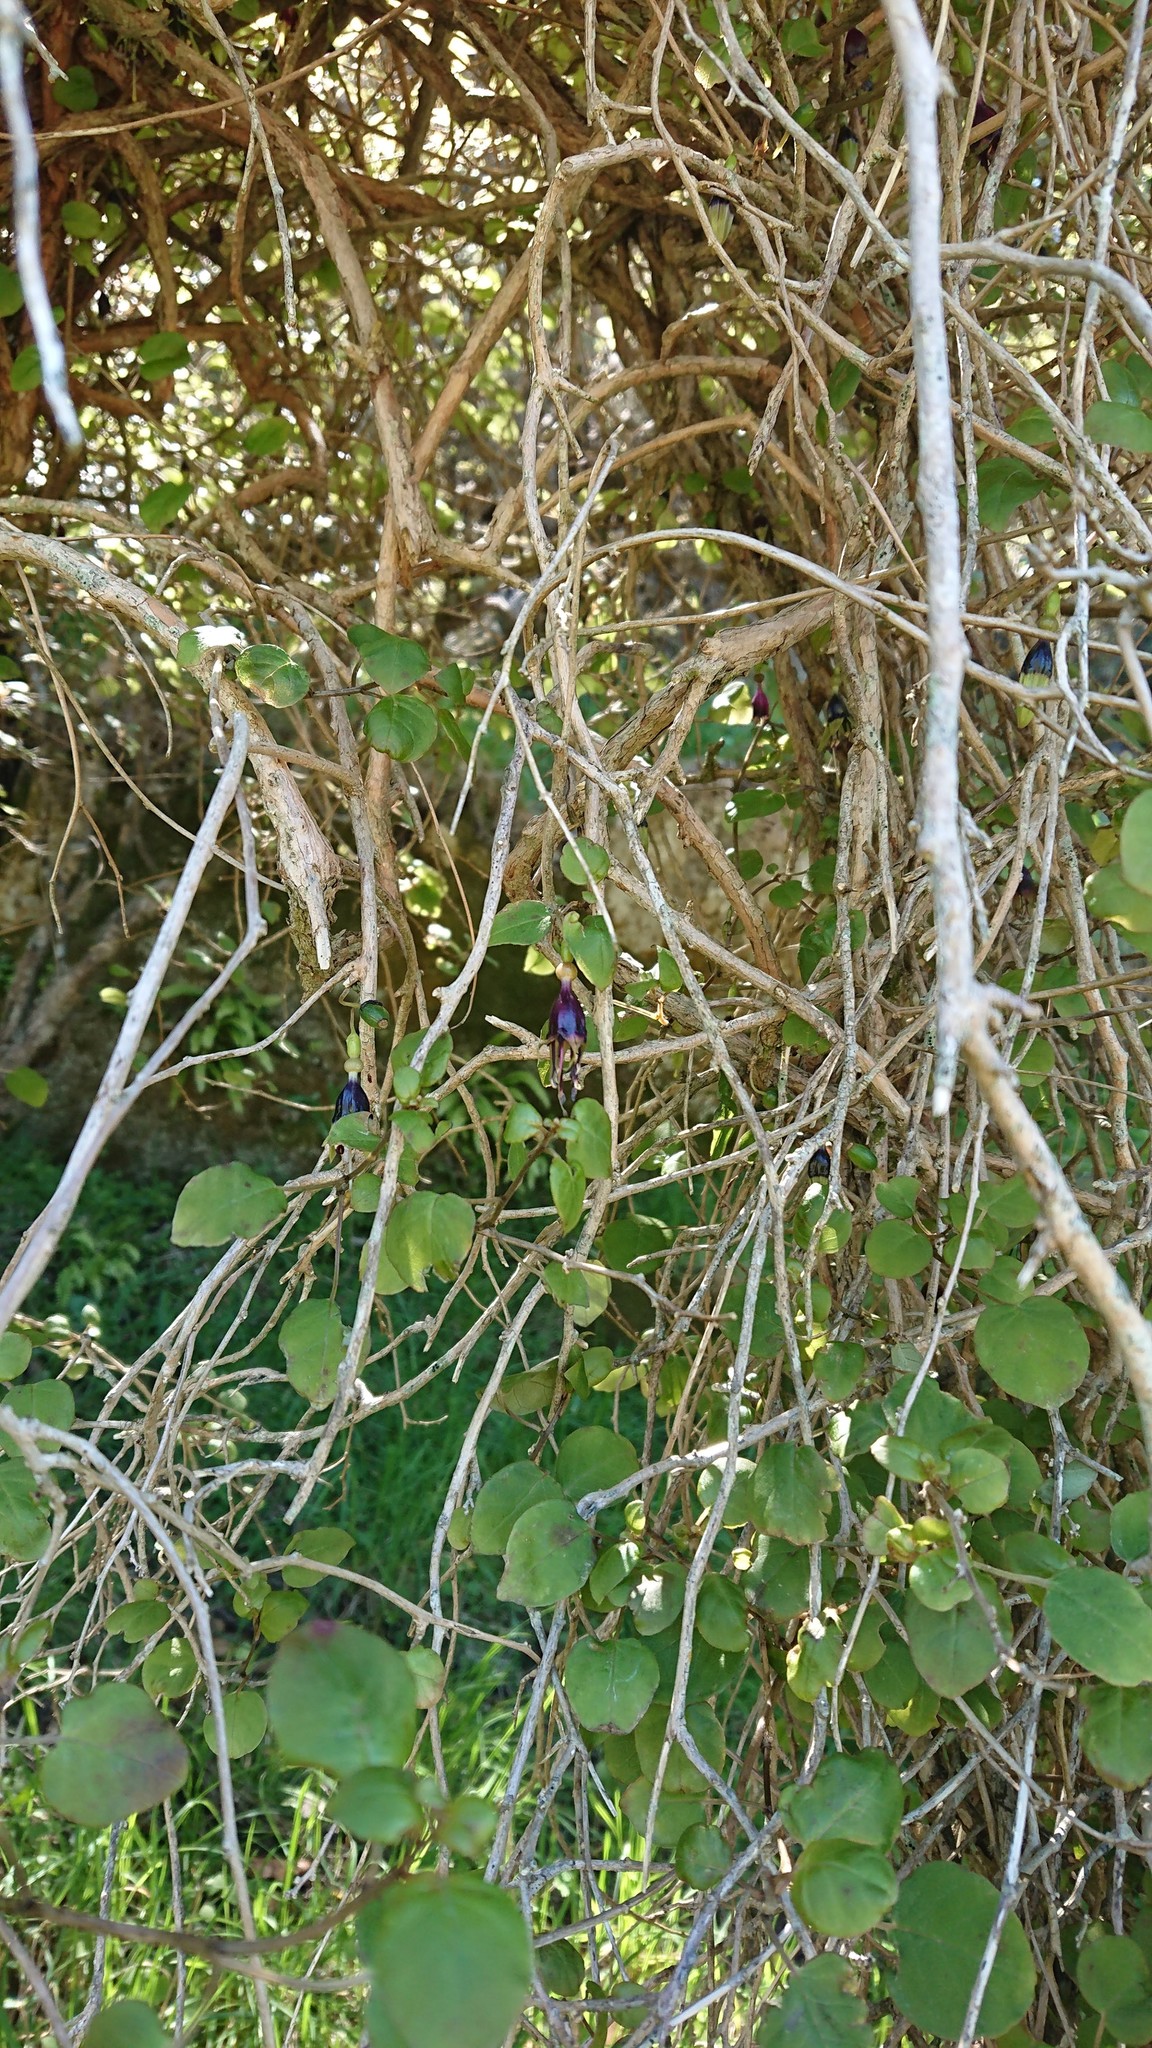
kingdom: Plantae
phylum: Tracheophyta
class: Magnoliopsida
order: Myrtales
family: Onagraceae
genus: Fuchsia
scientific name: Fuchsia perscandens
